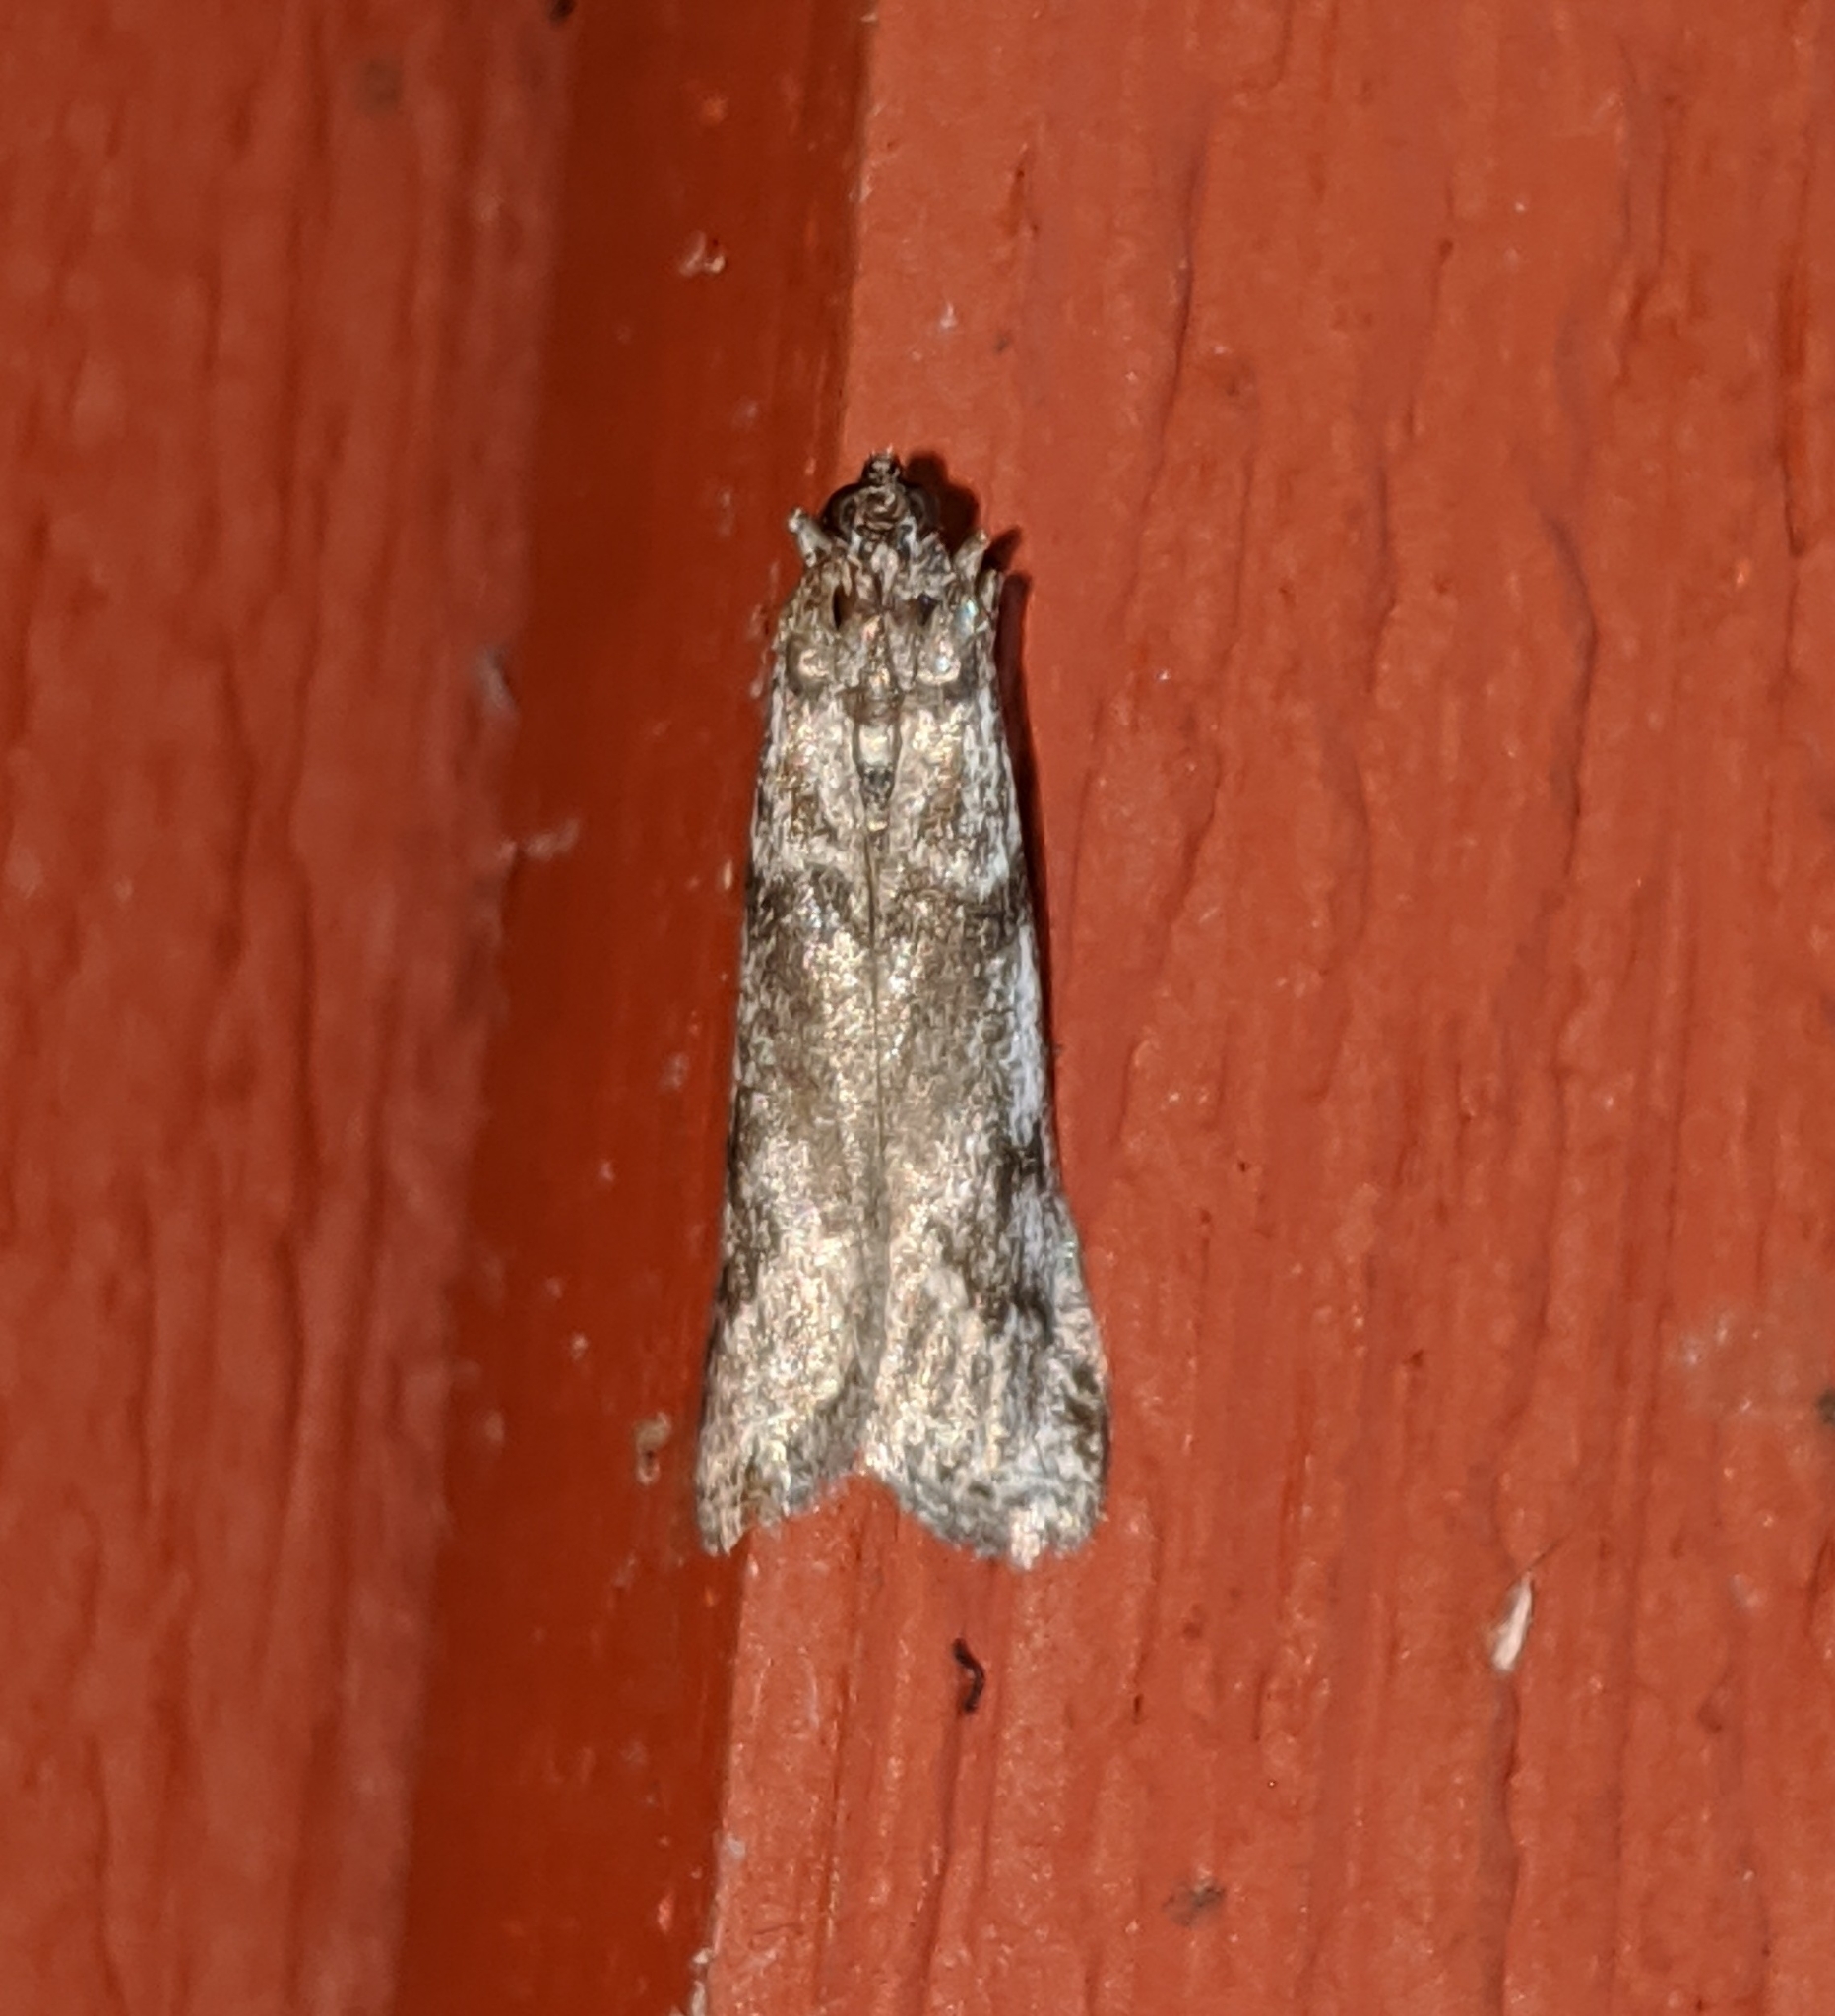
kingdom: Animalia
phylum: Arthropoda
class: Insecta
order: Lepidoptera
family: Pyralidae
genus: Myelopsis
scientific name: Myelopsis subtetricella
